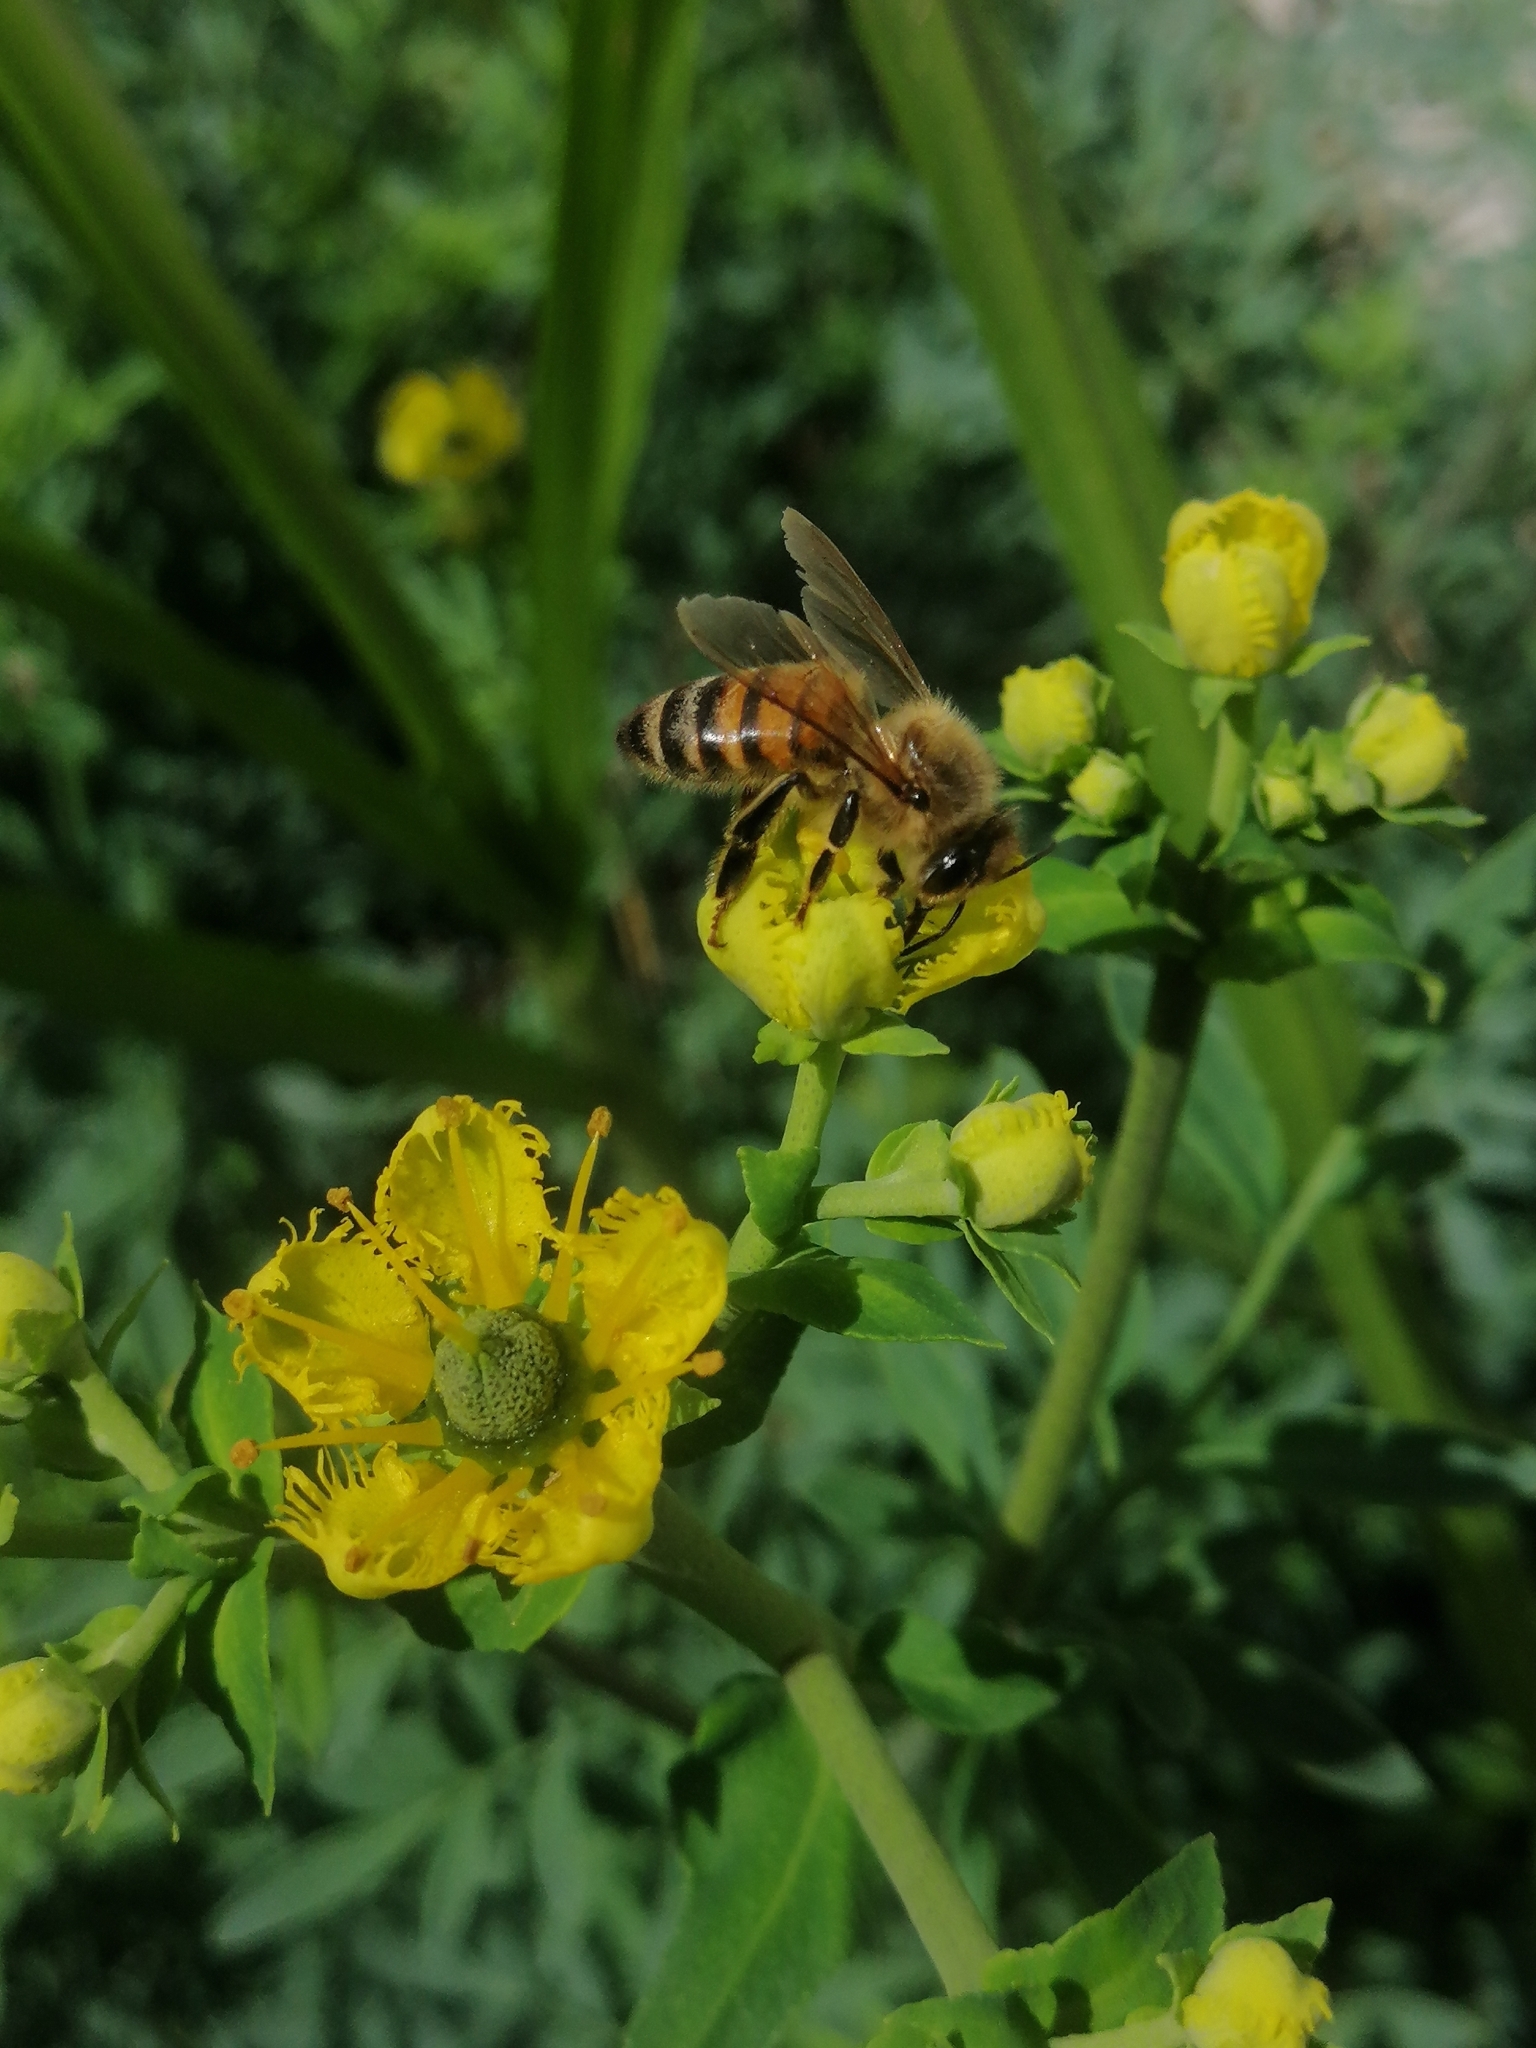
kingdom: Animalia
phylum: Arthropoda
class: Insecta
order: Hymenoptera
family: Apidae
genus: Apis
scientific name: Apis mellifera
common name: Honey bee
